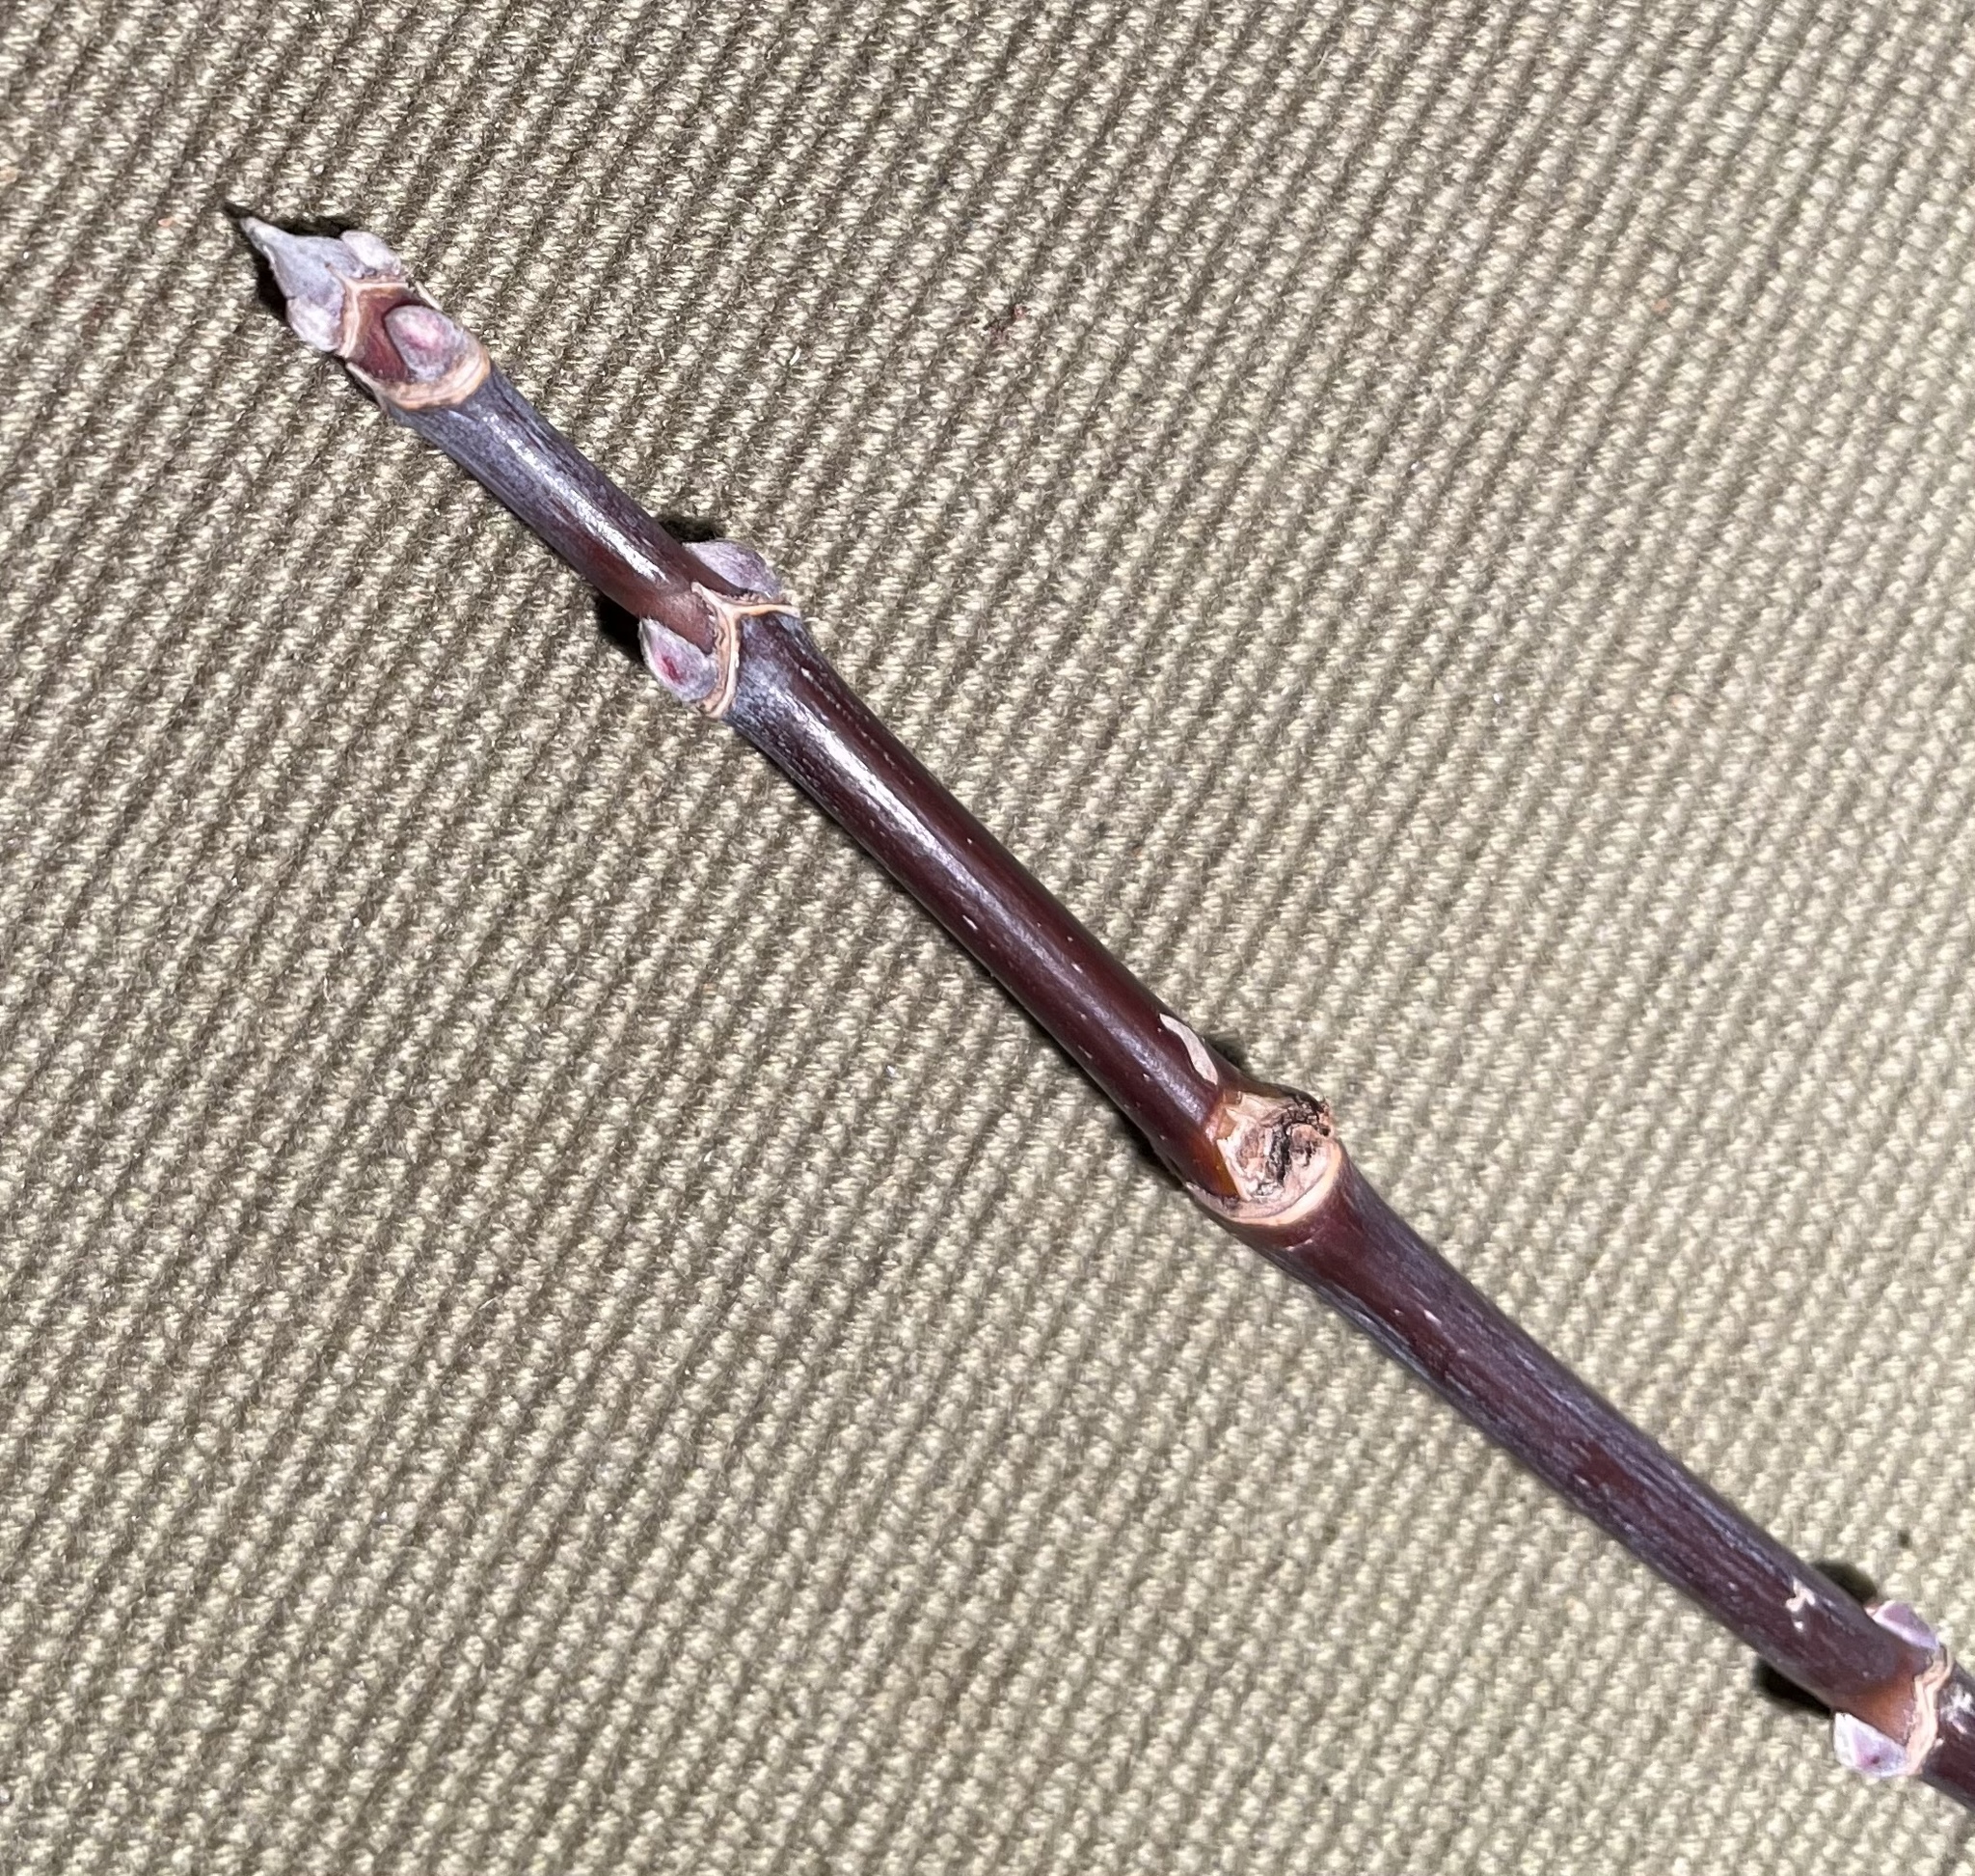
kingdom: Plantae
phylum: Tracheophyta
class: Magnoliopsida
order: Sapindales
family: Sapindaceae
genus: Acer
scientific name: Acer negundo
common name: Ashleaf maple
